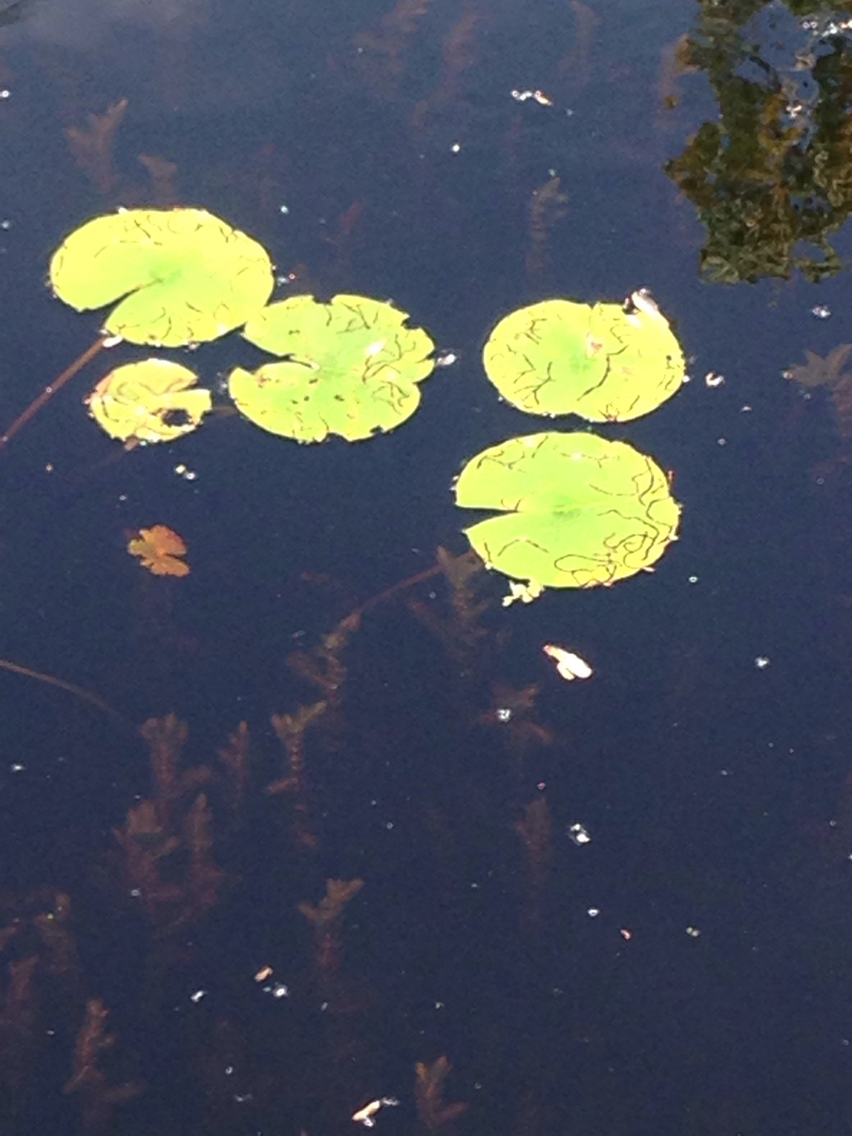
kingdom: Plantae
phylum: Tracheophyta
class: Magnoliopsida
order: Nymphaeales
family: Nymphaeaceae
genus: Nymphaea
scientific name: Nymphaea odorata
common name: Fragrant water-lily
